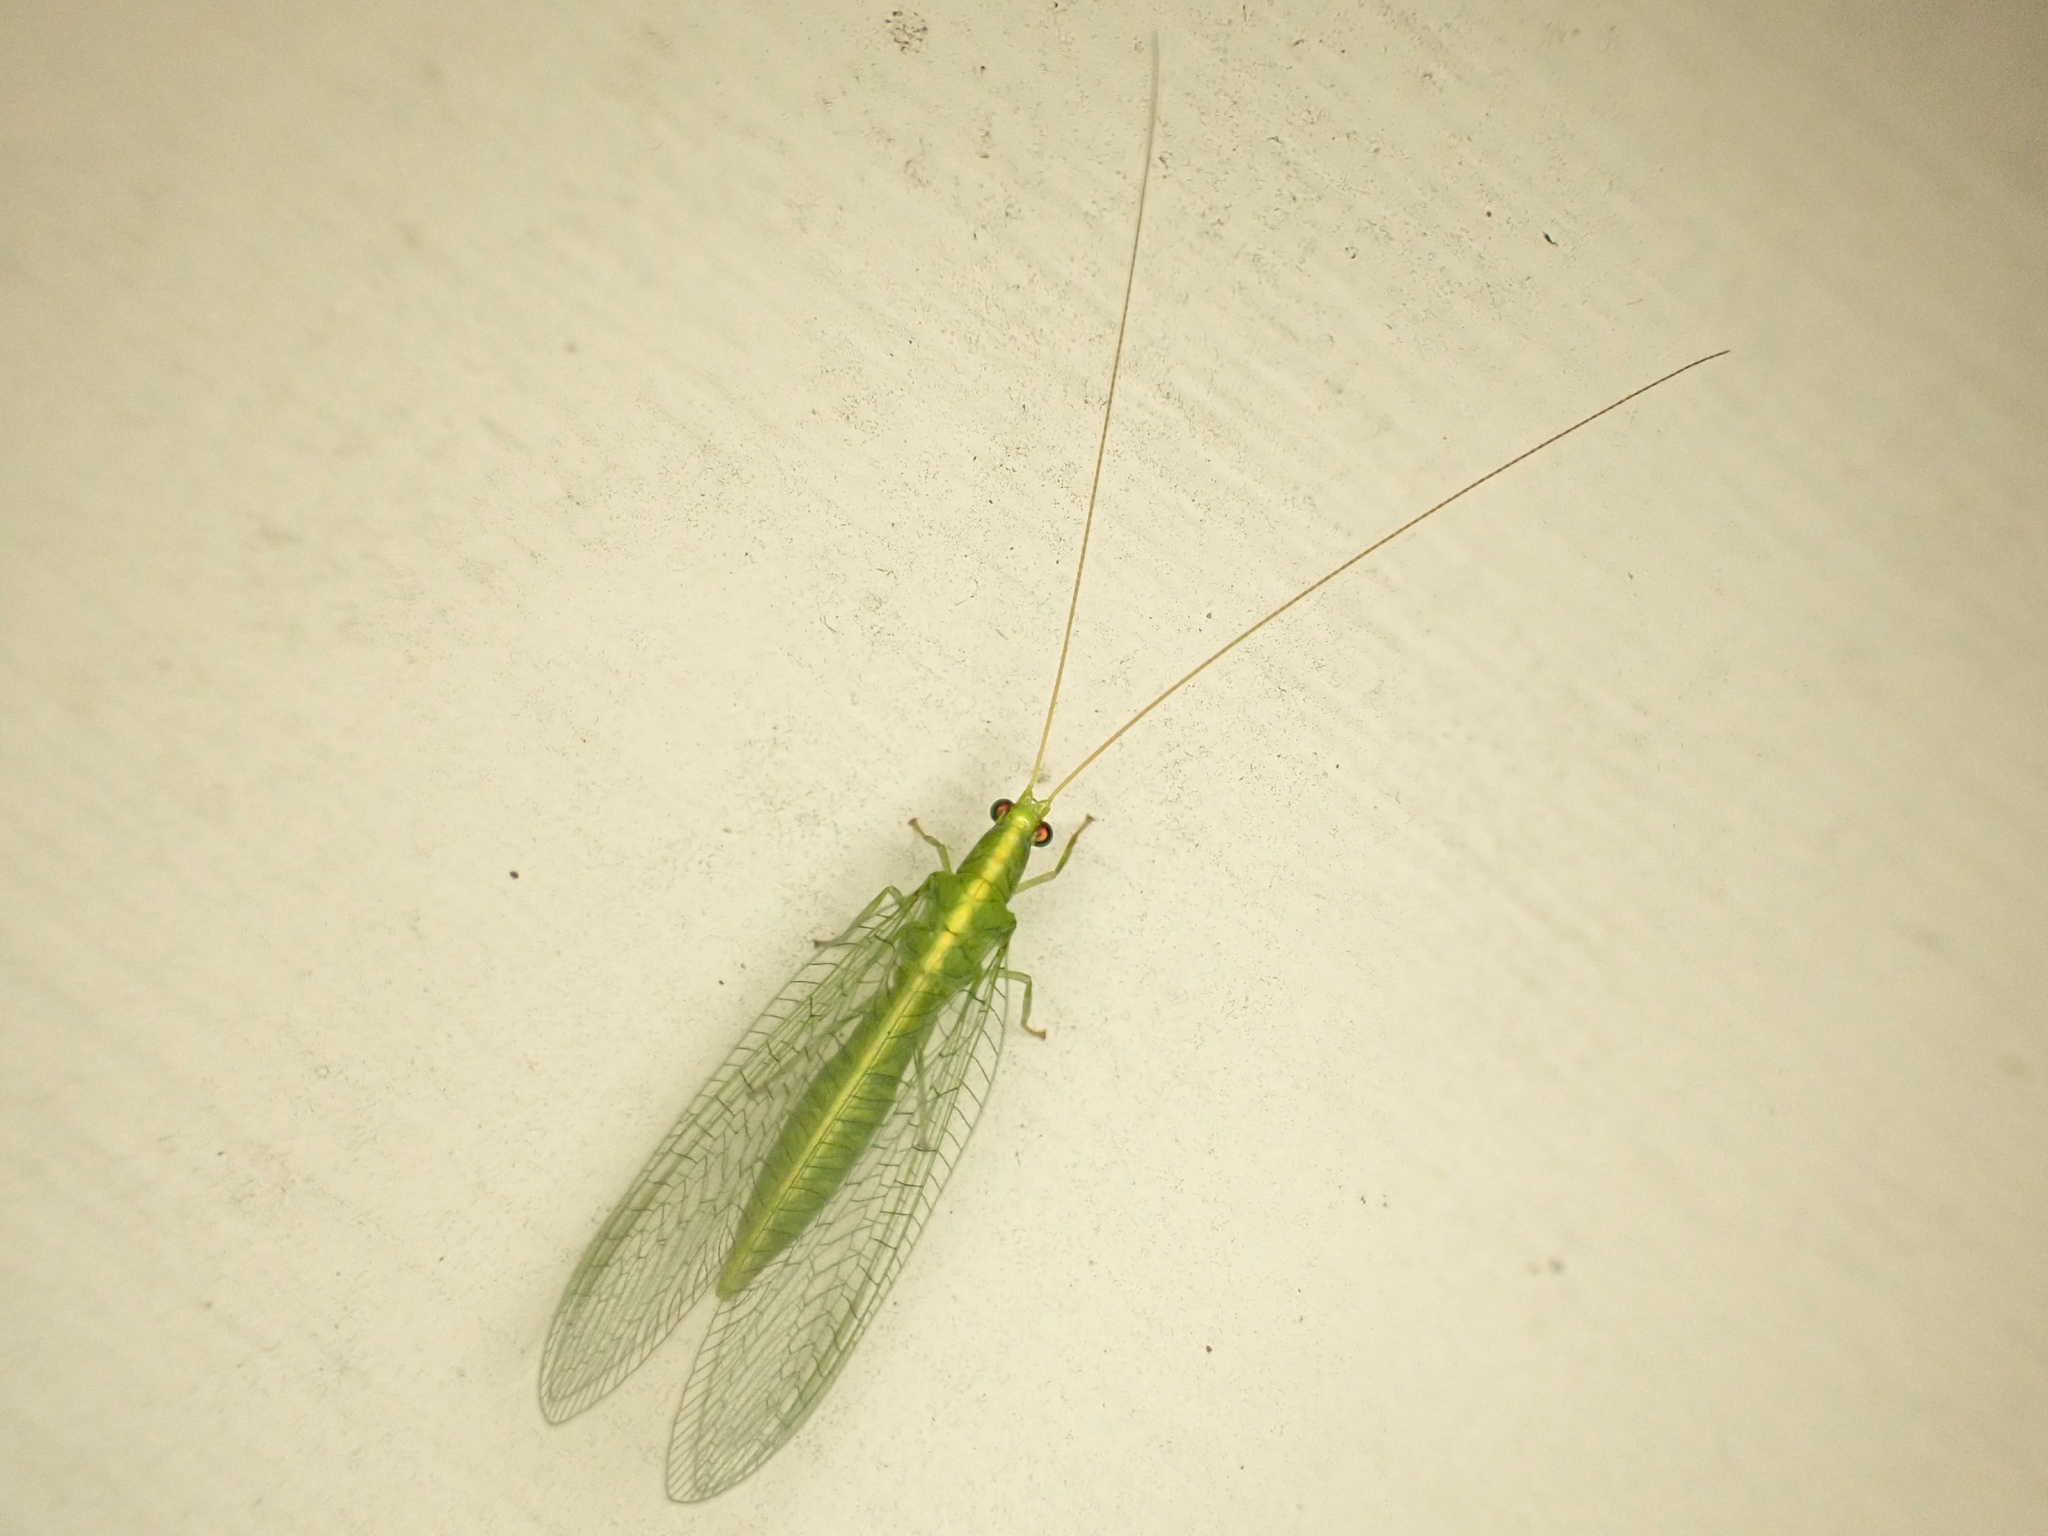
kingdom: Animalia
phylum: Arthropoda
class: Insecta
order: Neuroptera
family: Chrysopidae
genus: Mallada
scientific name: Mallada basalis
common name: Green lacewing
